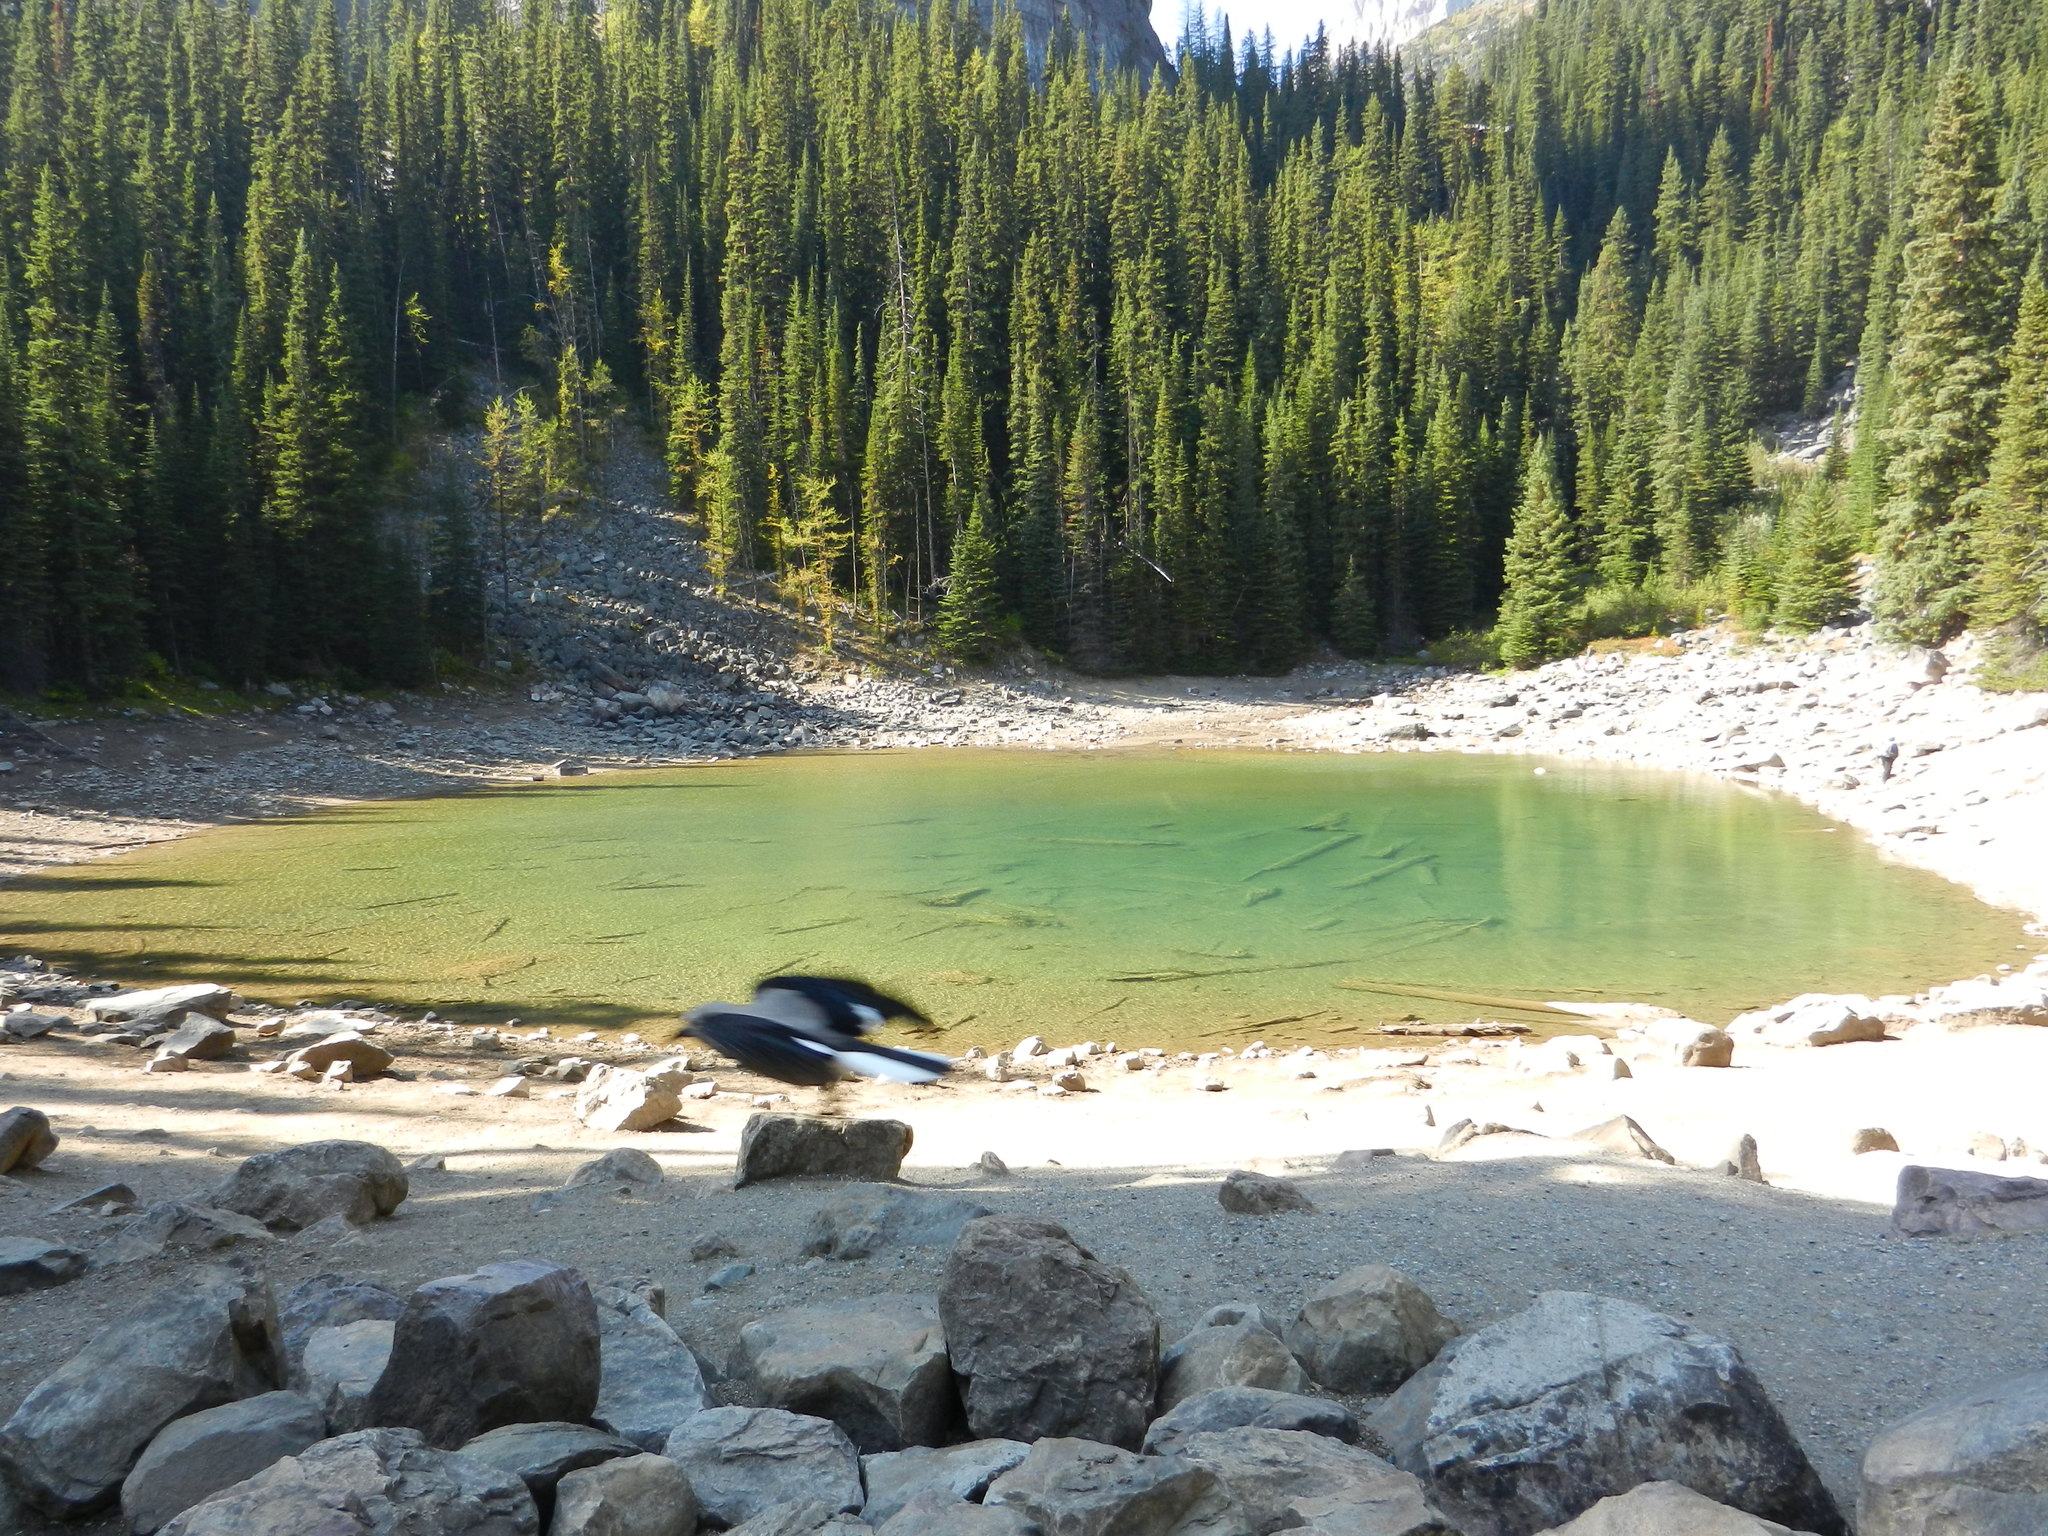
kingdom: Animalia
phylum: Chordata
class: Aves
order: Passeriformes
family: Corvidae
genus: Nucifraga
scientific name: Nucifraga columbiana
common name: Clark's nutcracker
